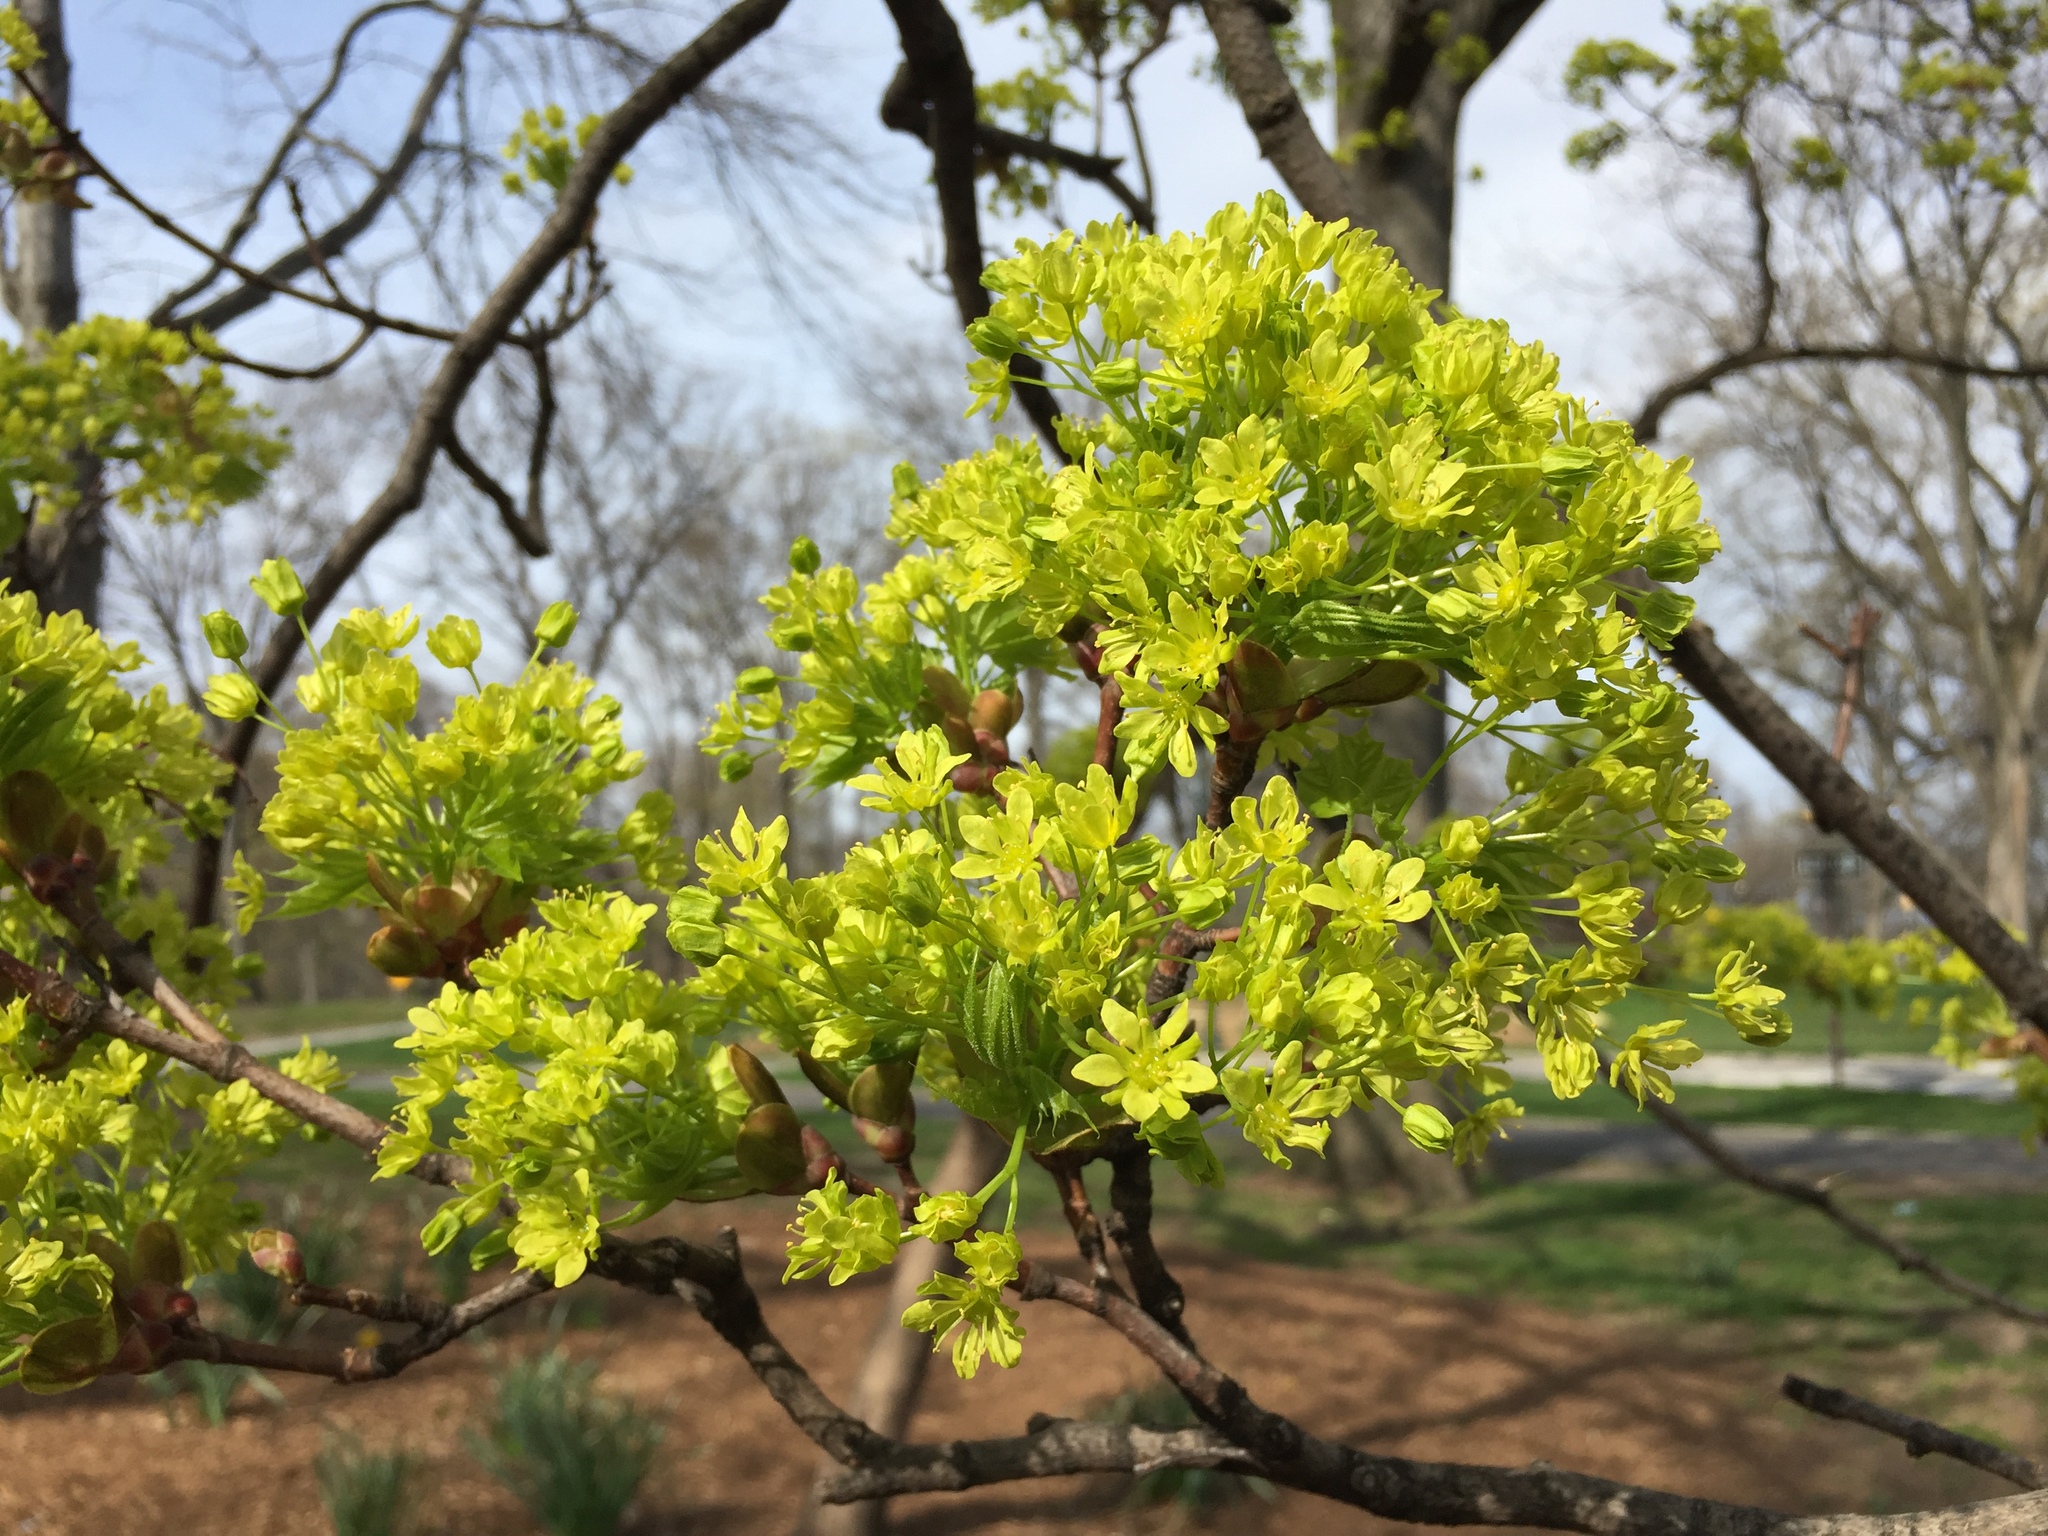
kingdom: Plantae
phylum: Tracheophyta
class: Magnoliopsida
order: Sapindales
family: Sapindaceae
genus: Acer
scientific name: Acer platanoides
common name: Norway maple
